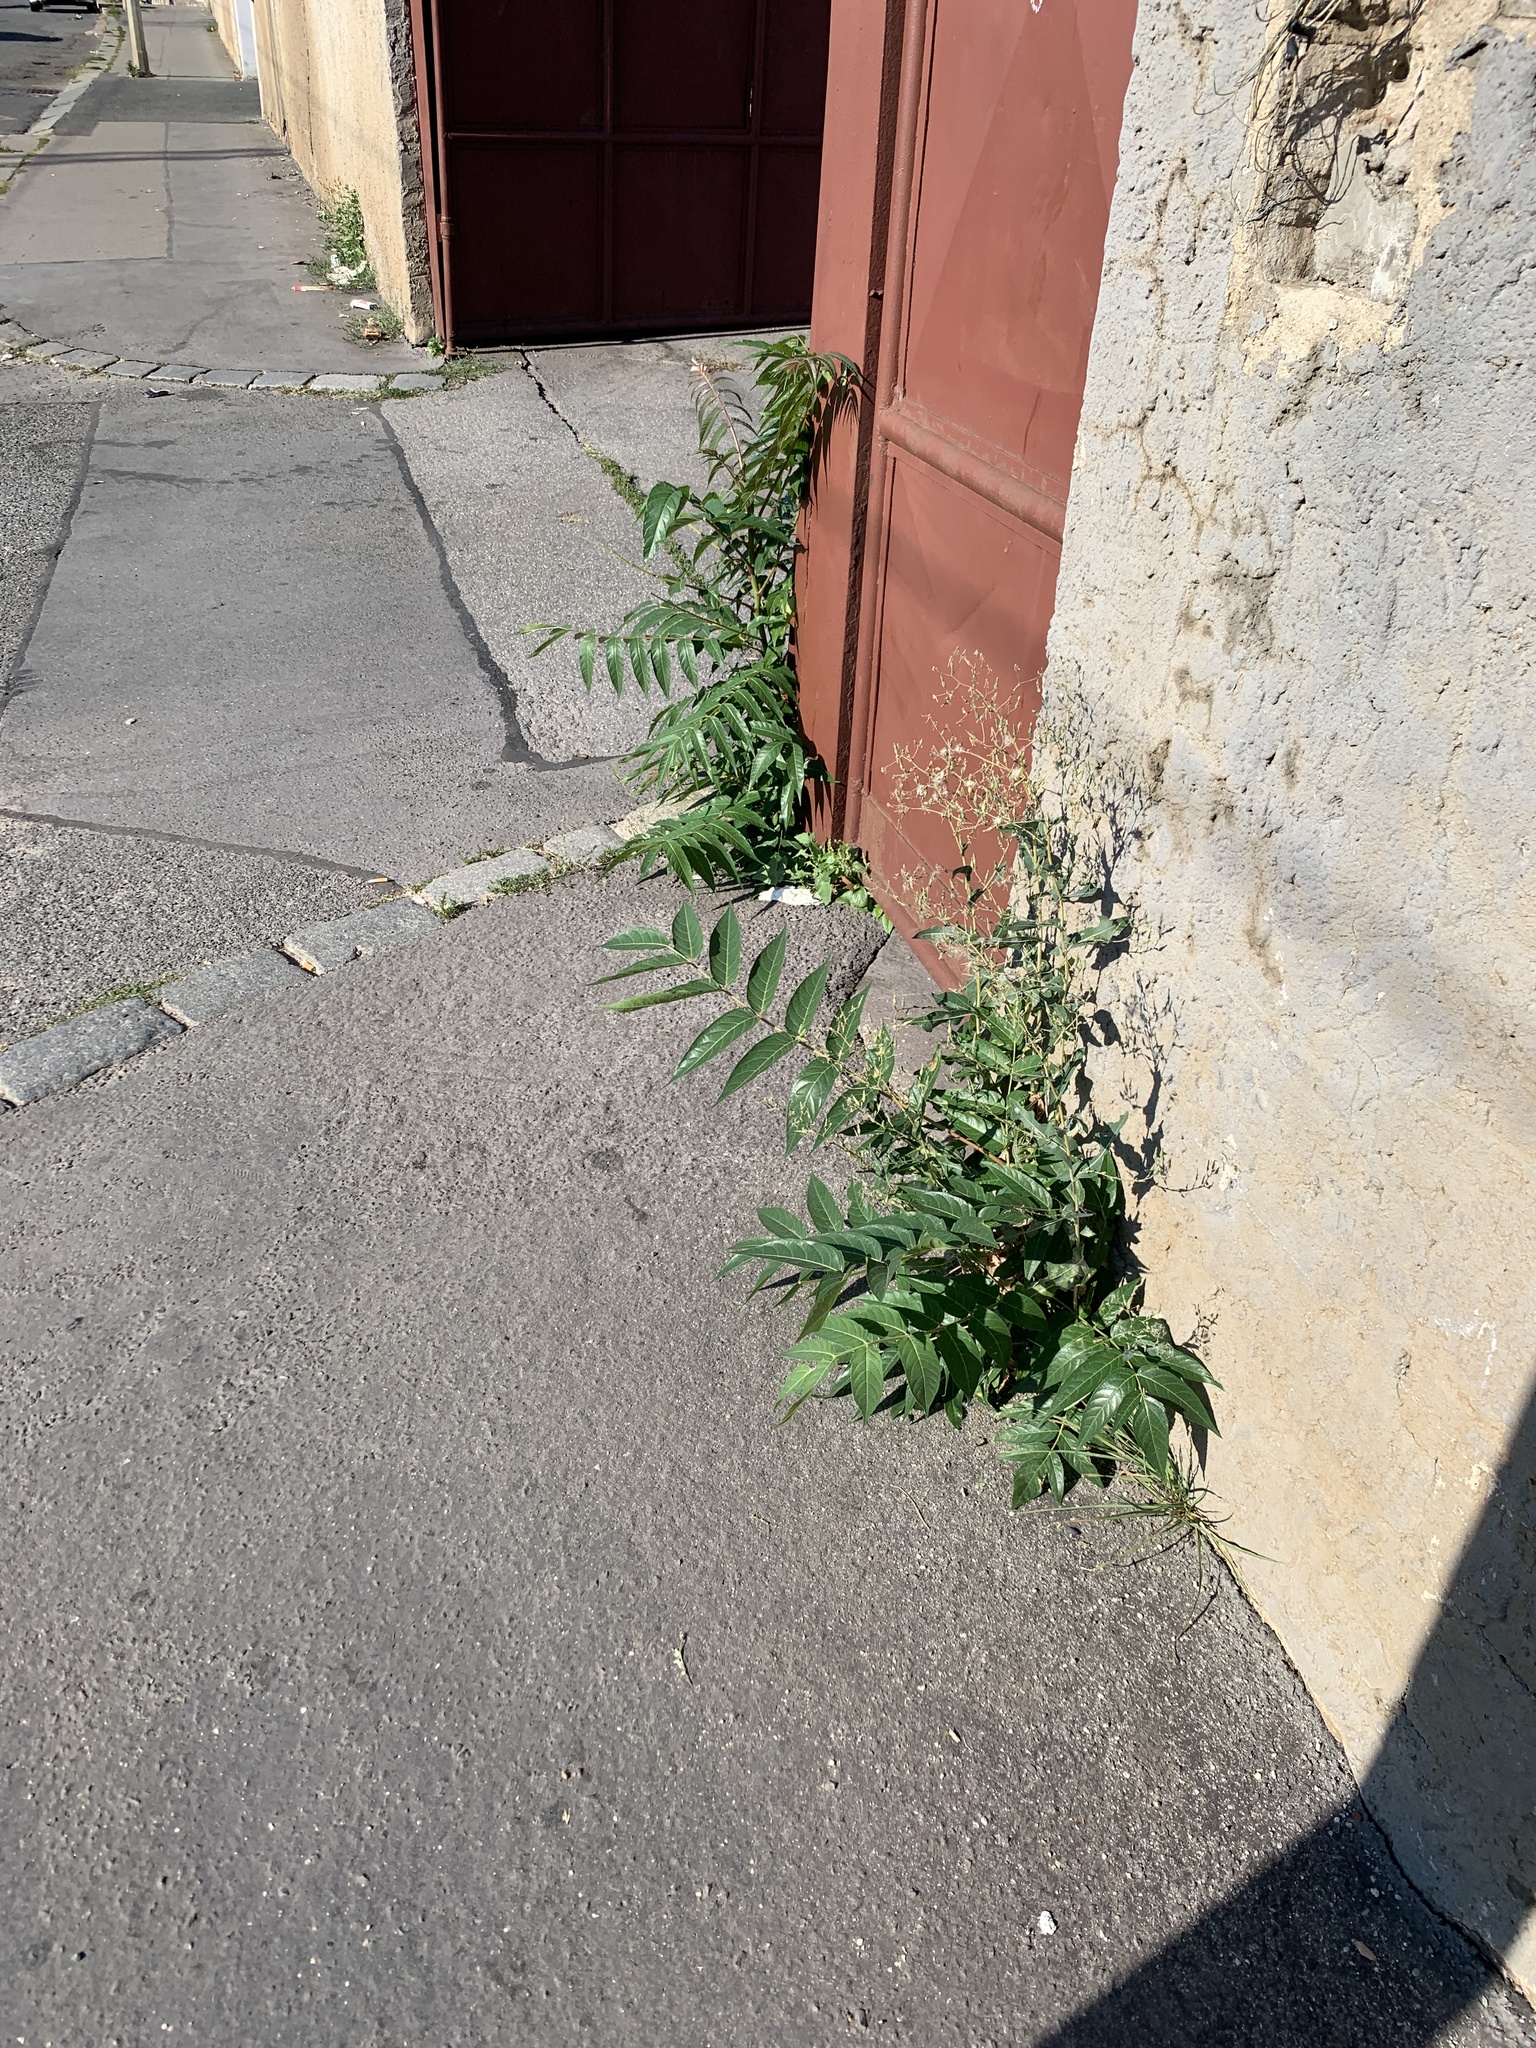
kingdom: Plantae
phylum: Tracheophyta
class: Magnoliopsida
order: Sapindales
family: Simaroubaceae
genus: Ailanthus
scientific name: Ailanthus altissima
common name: Tree-of-heaven
